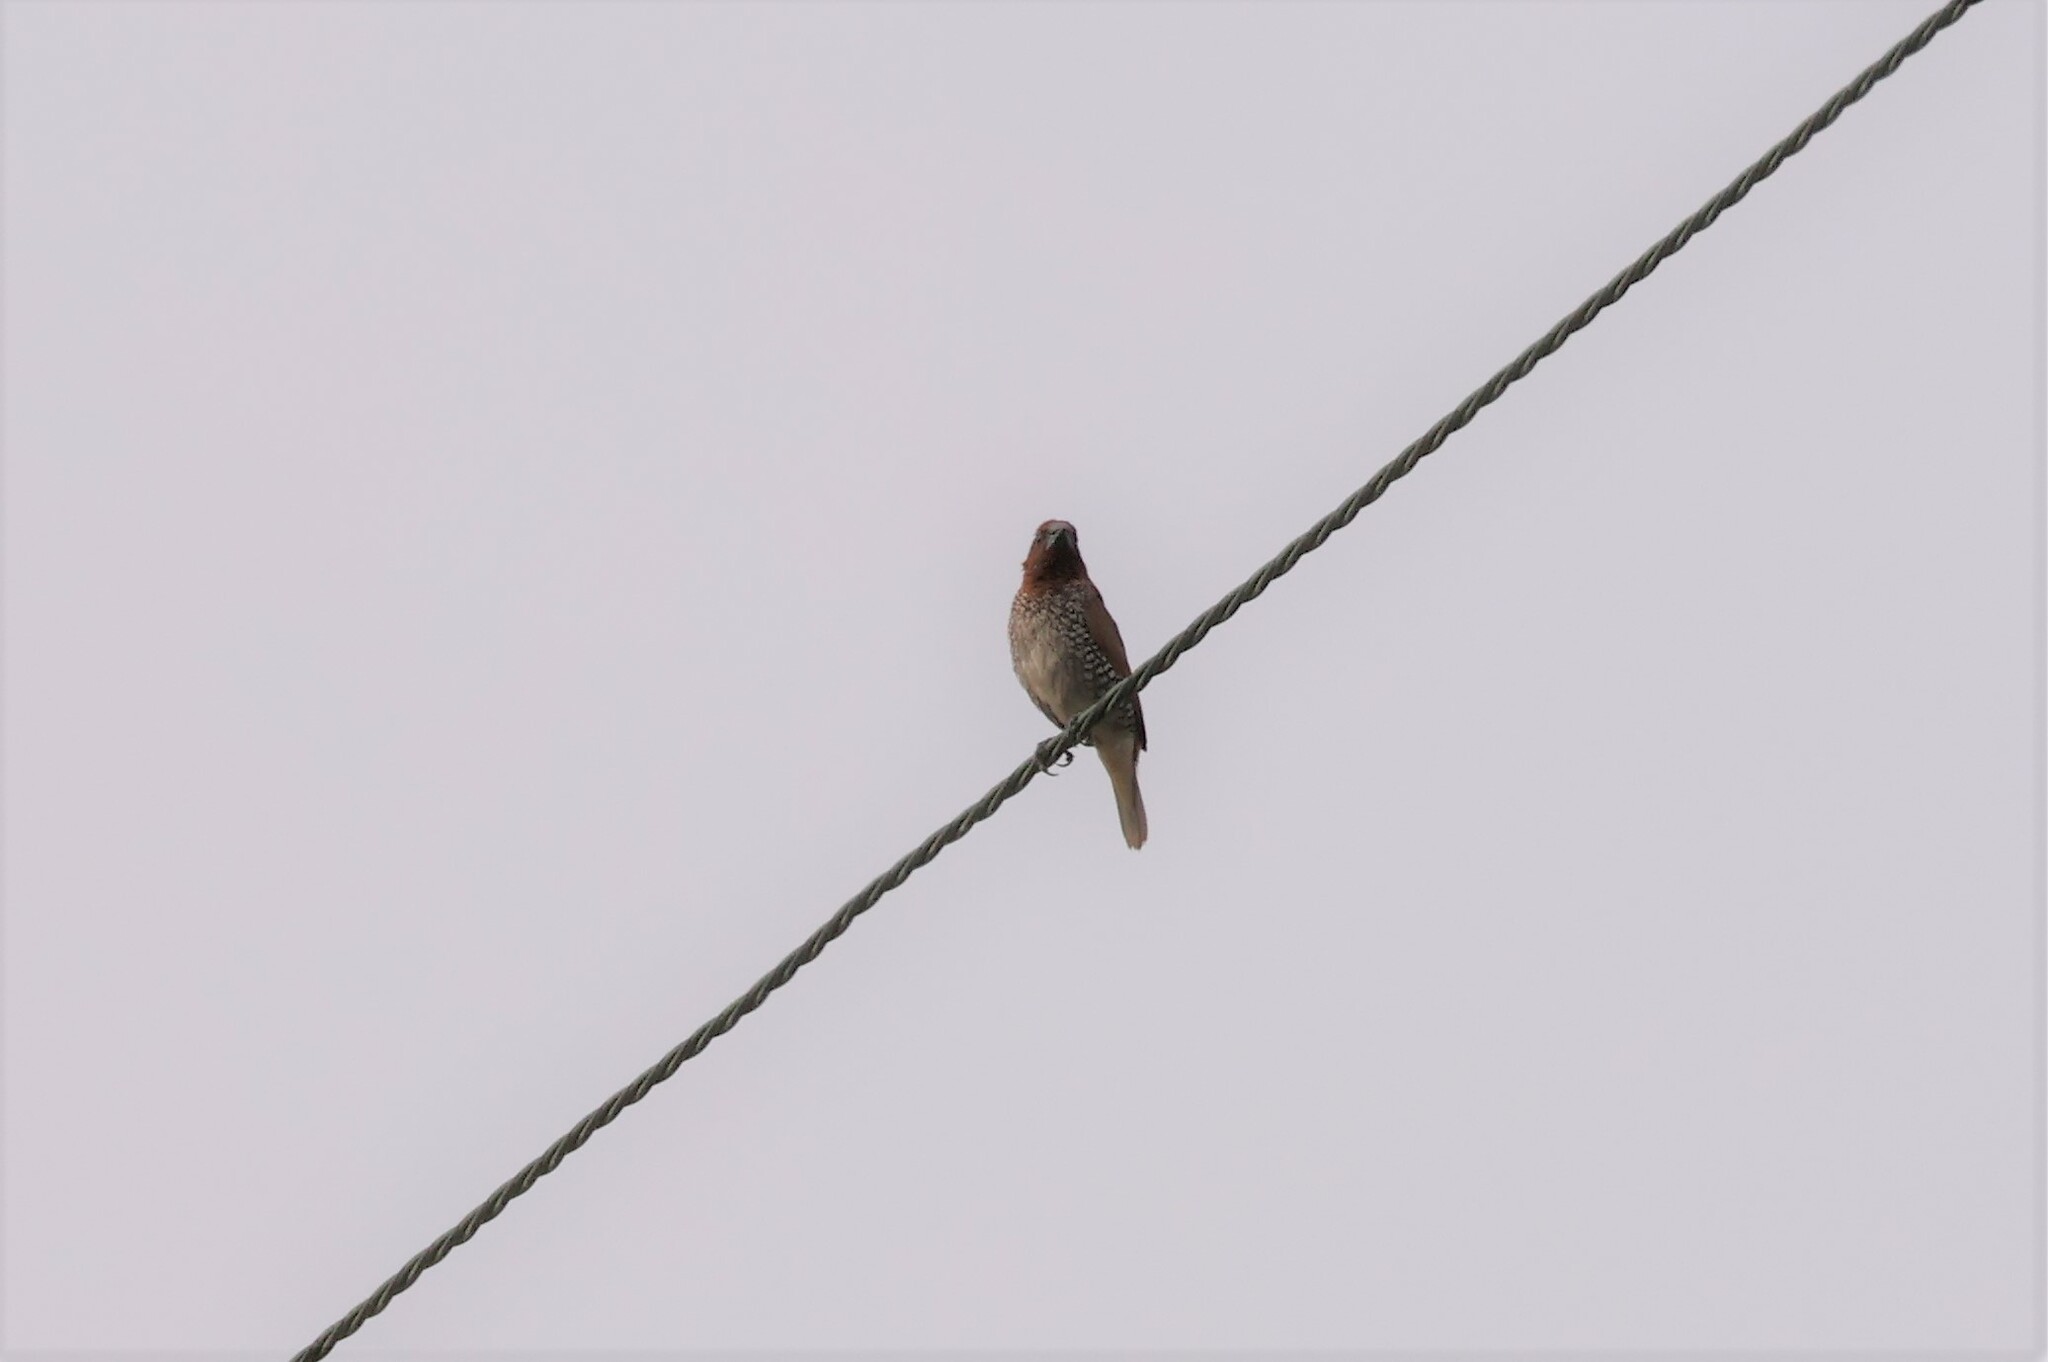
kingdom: Animalia
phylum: Chordata
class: Aves
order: Passeriformes
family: Estrildidae
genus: Lonchura
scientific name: Lonchura punctulata
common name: Scaly-breasted munia
